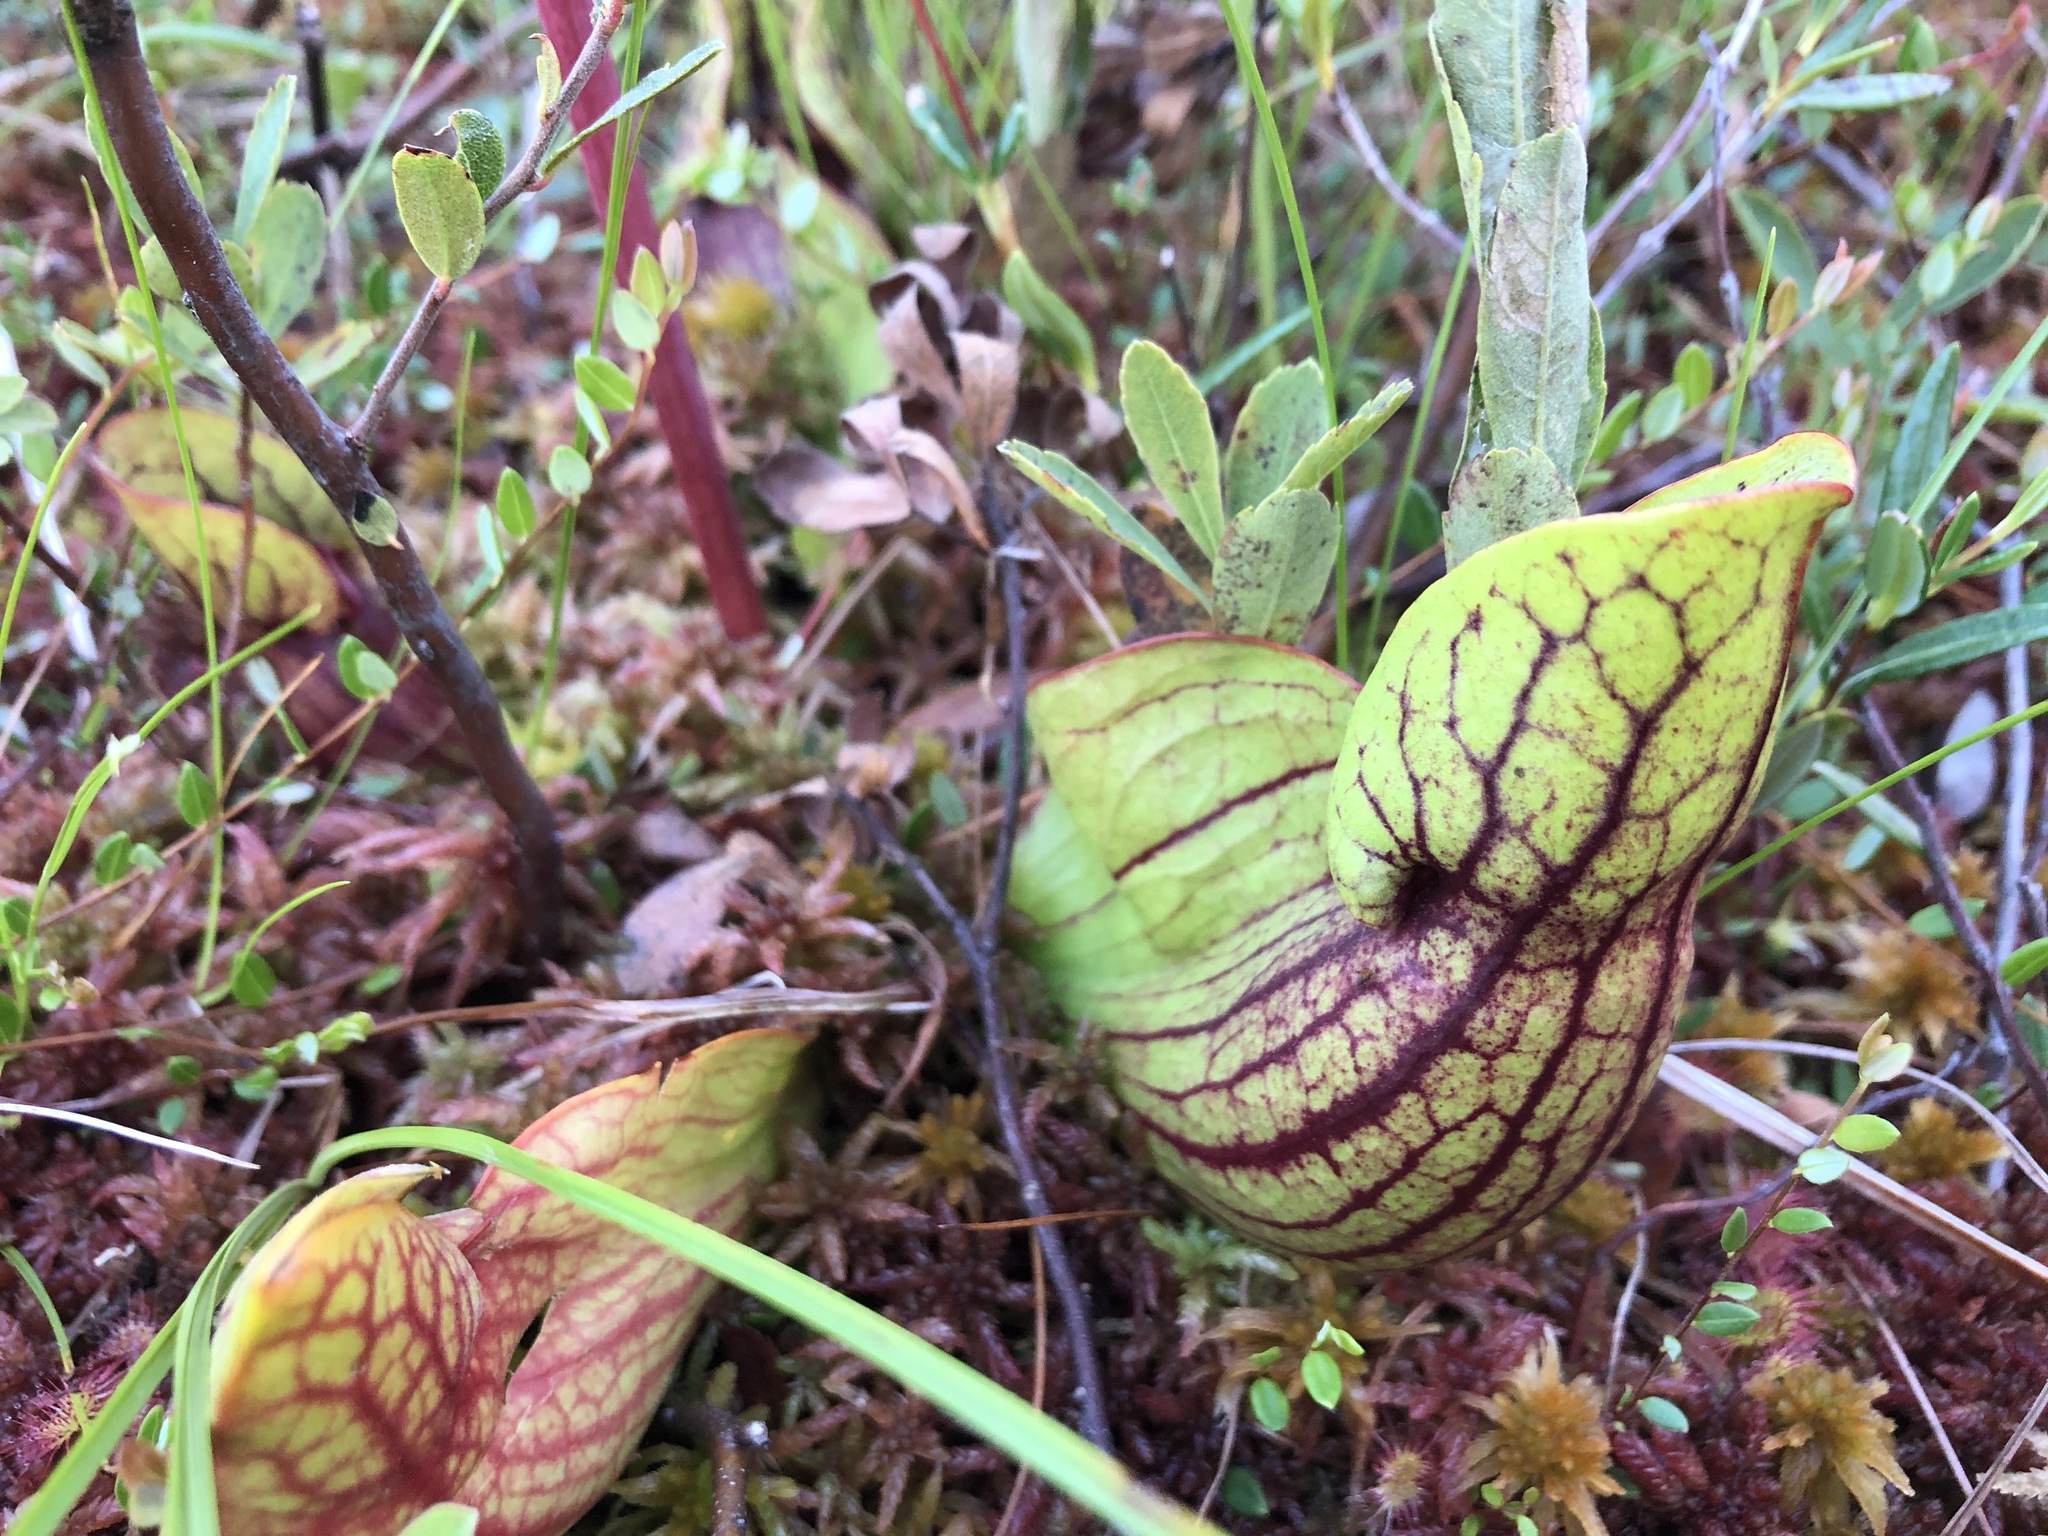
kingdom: Plantae
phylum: Tracheophyta
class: Magnoliopsida
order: Ericales
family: Sarraceniaceae
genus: Sarracenia
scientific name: Sarracenia purpurea
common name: Pitcherplant
